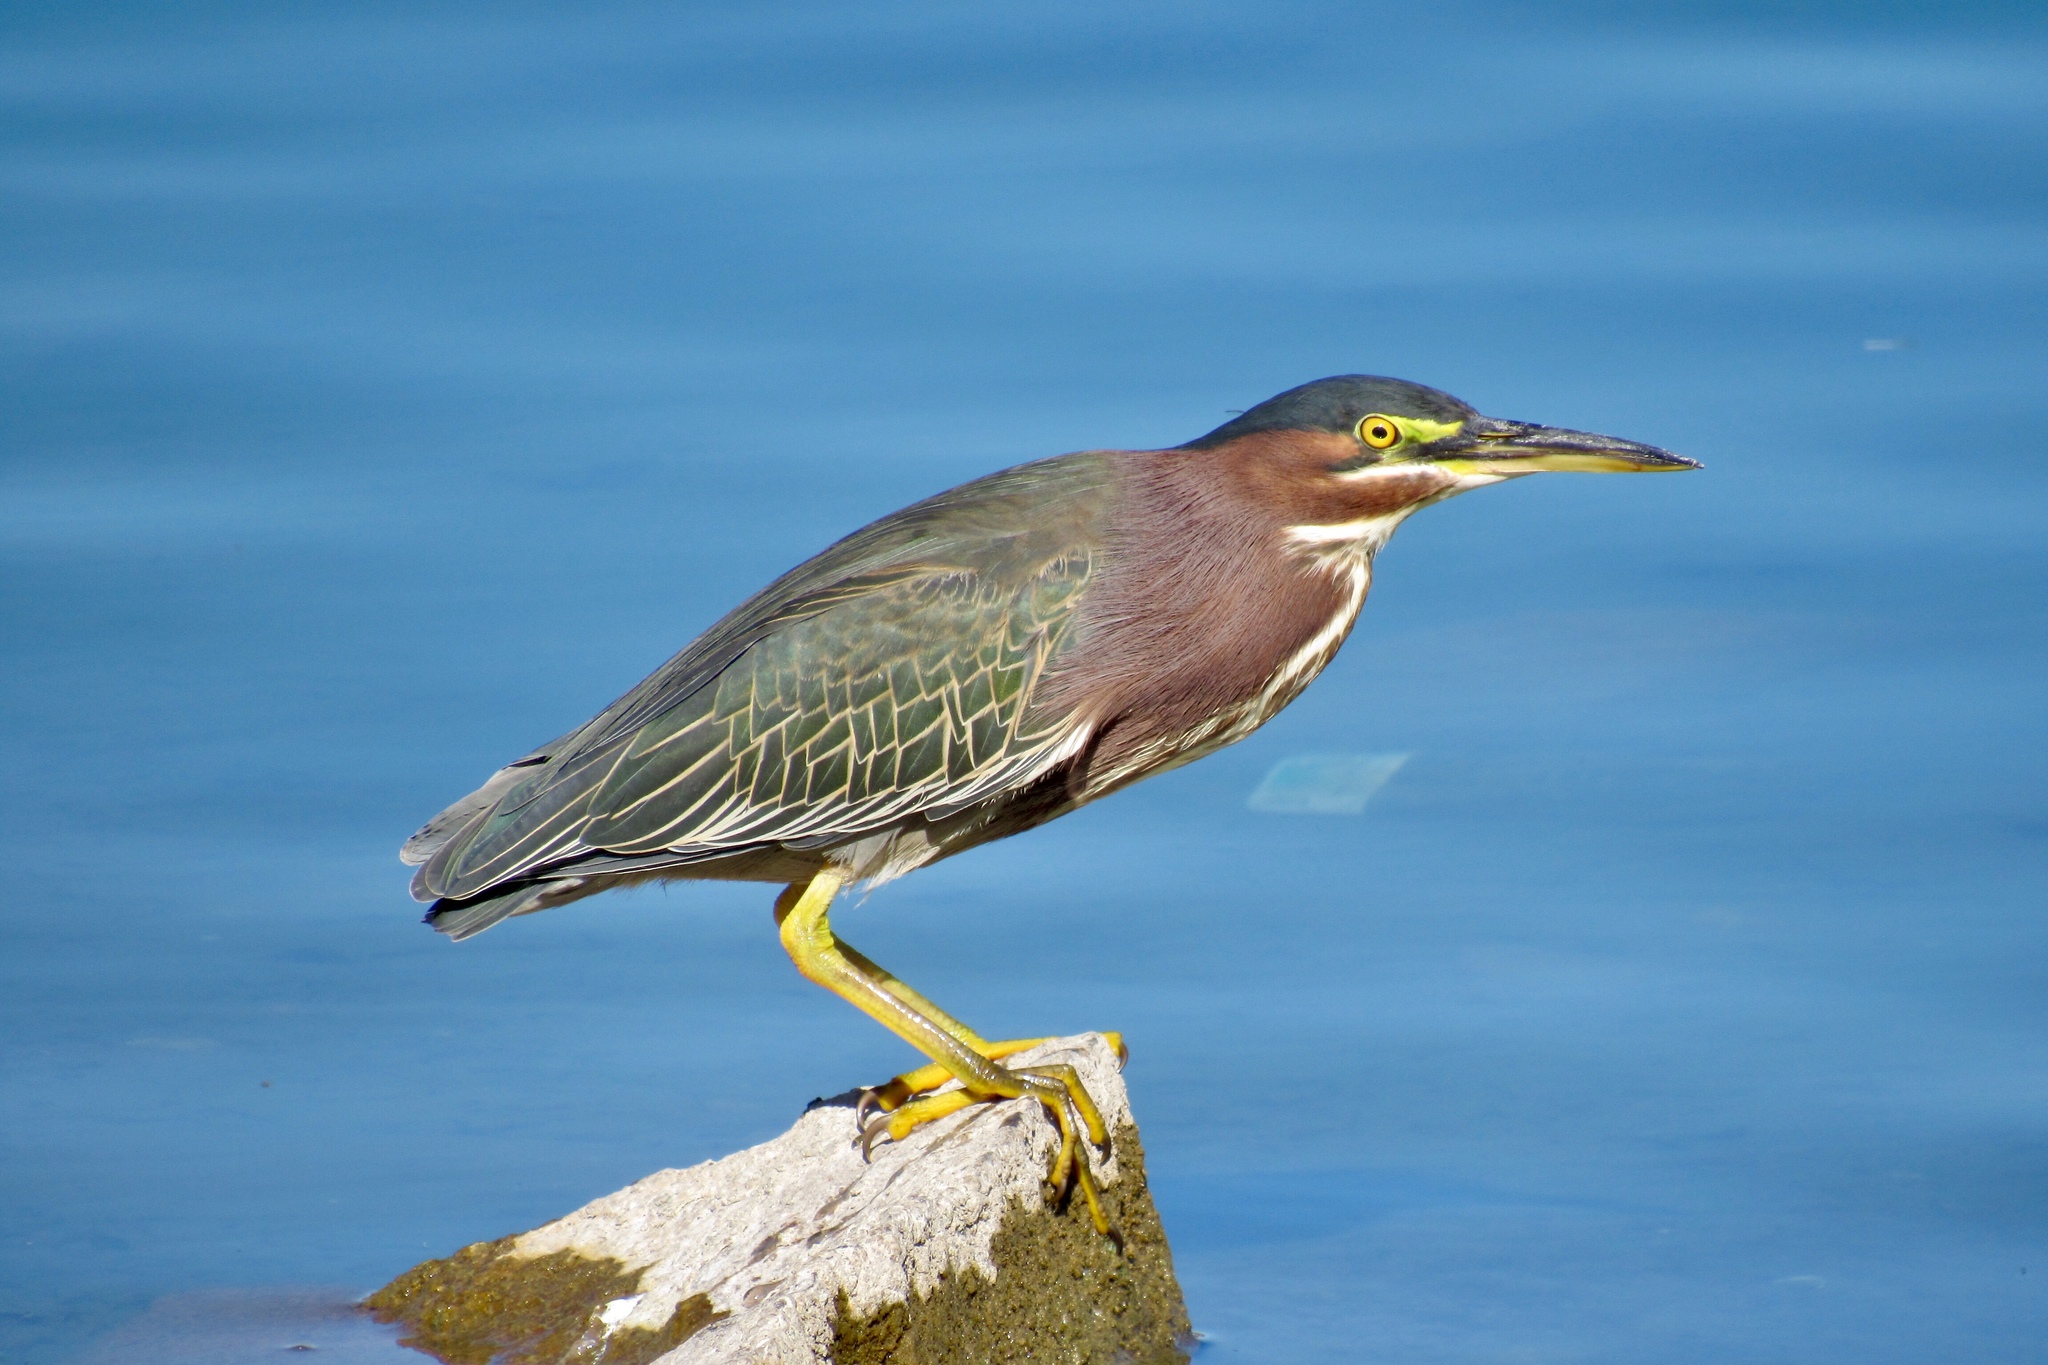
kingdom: Animalia
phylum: Chordata
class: Aves
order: Pelecaniformes
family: Ardeidae
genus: Butorides
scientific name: Butorides virescens
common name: Green heron
